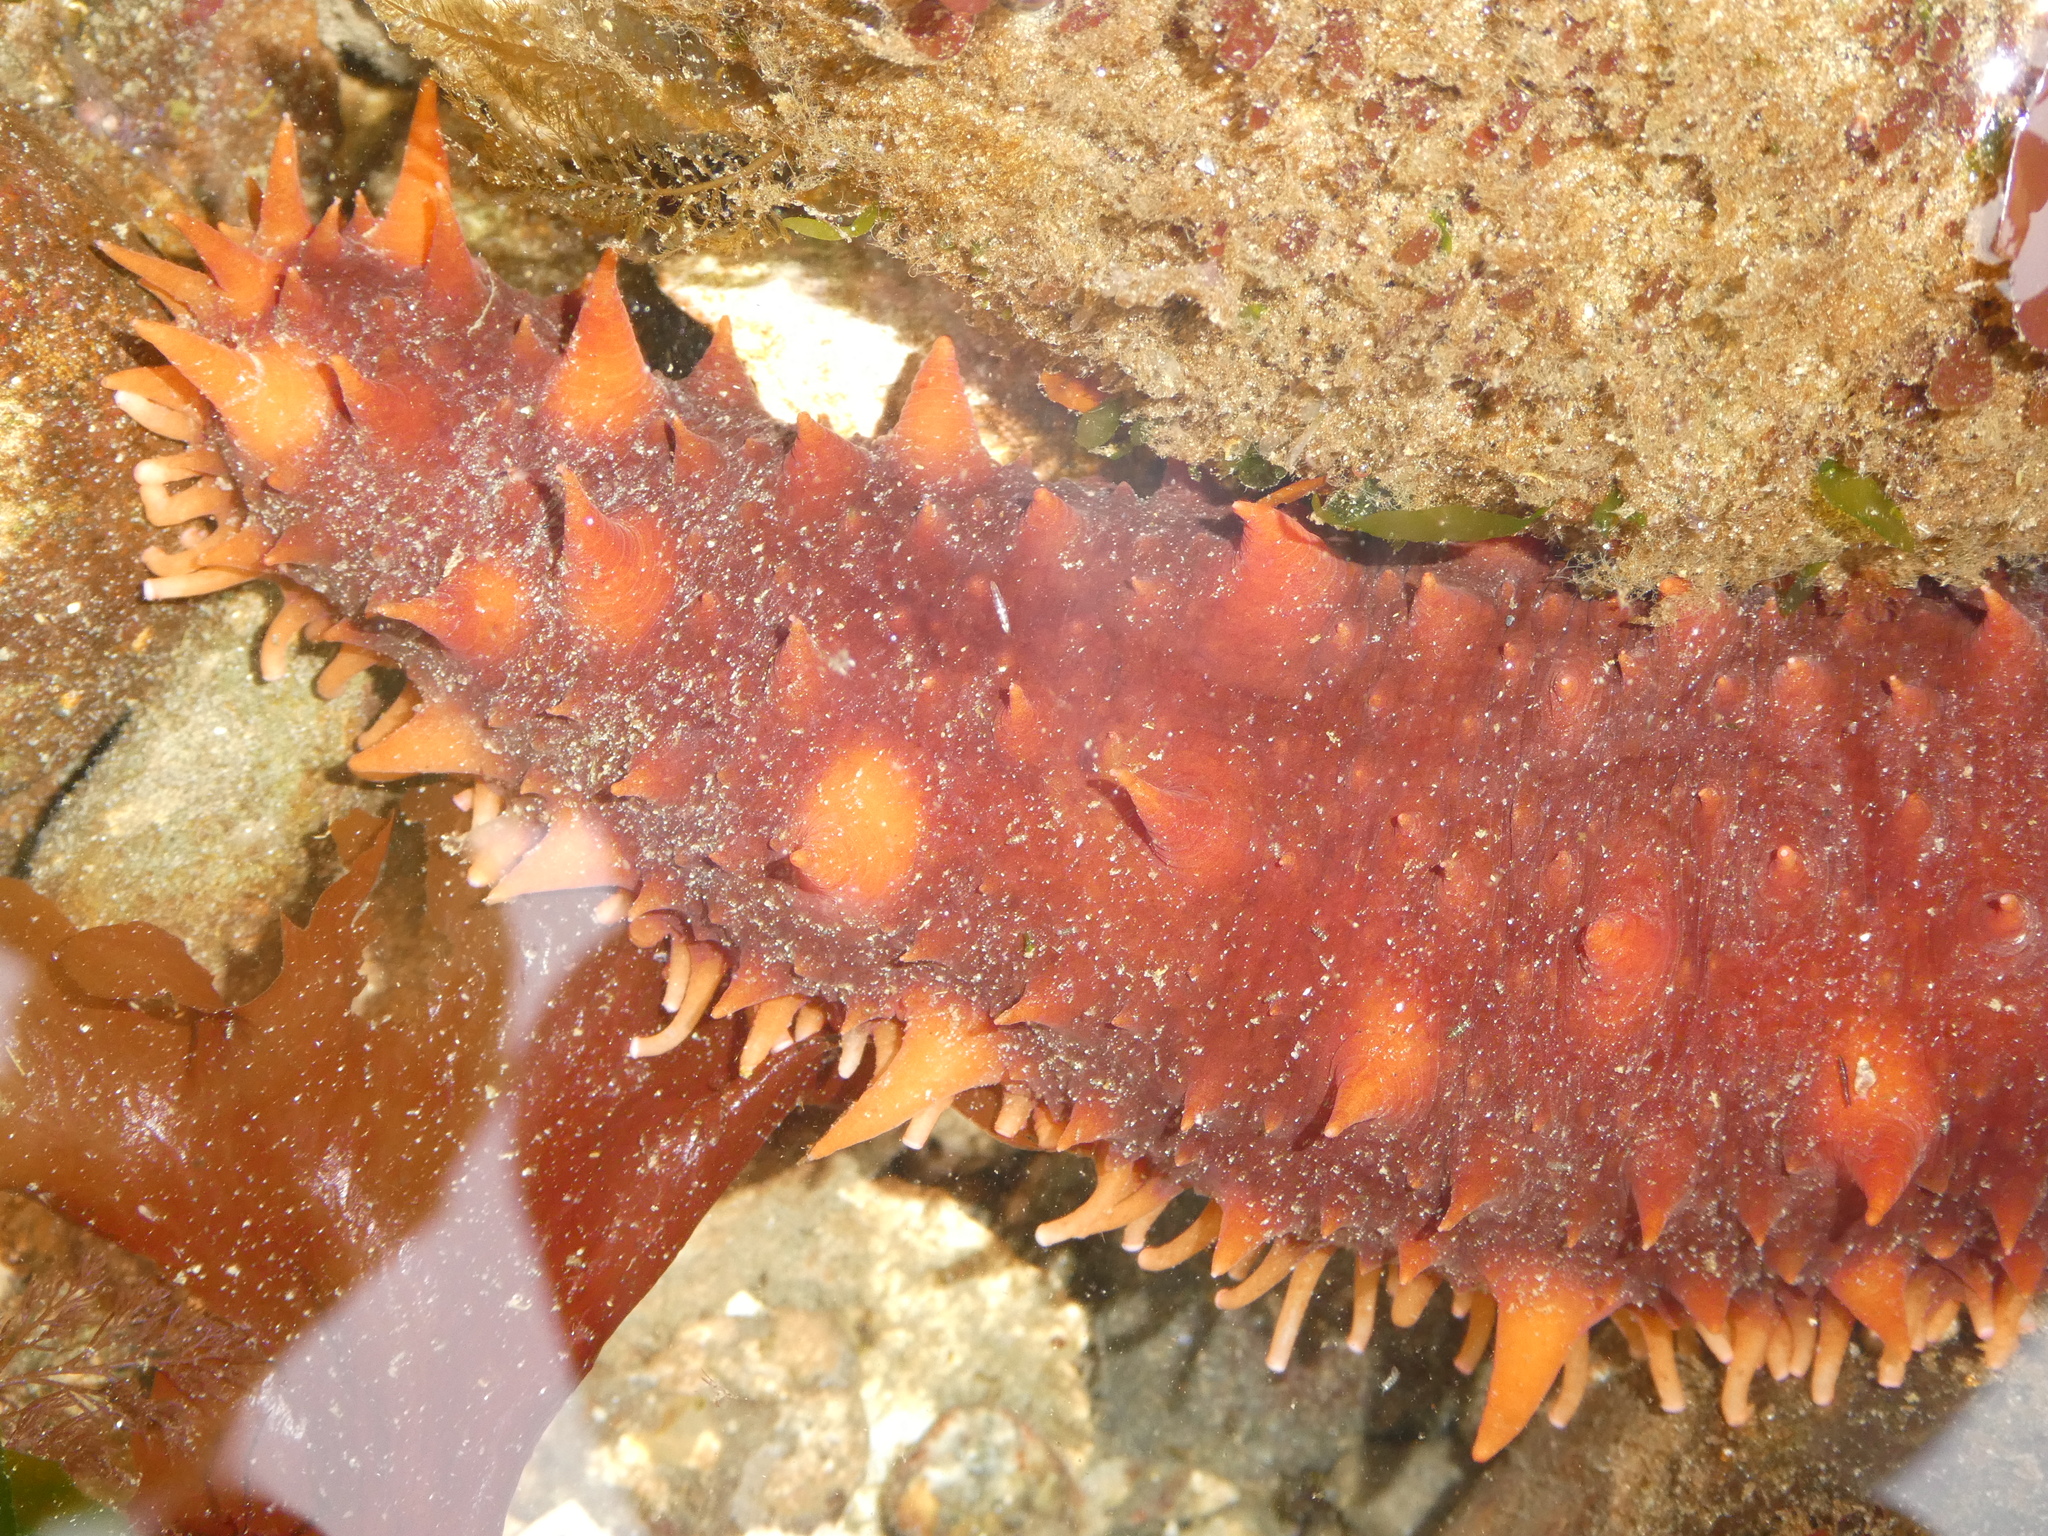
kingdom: Animalia
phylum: Echinodermata
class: Holothuroidea
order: Synallactida
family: Stichopodidae
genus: Apostichopus
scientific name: Apostichopus californicus
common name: California sea cucumber
